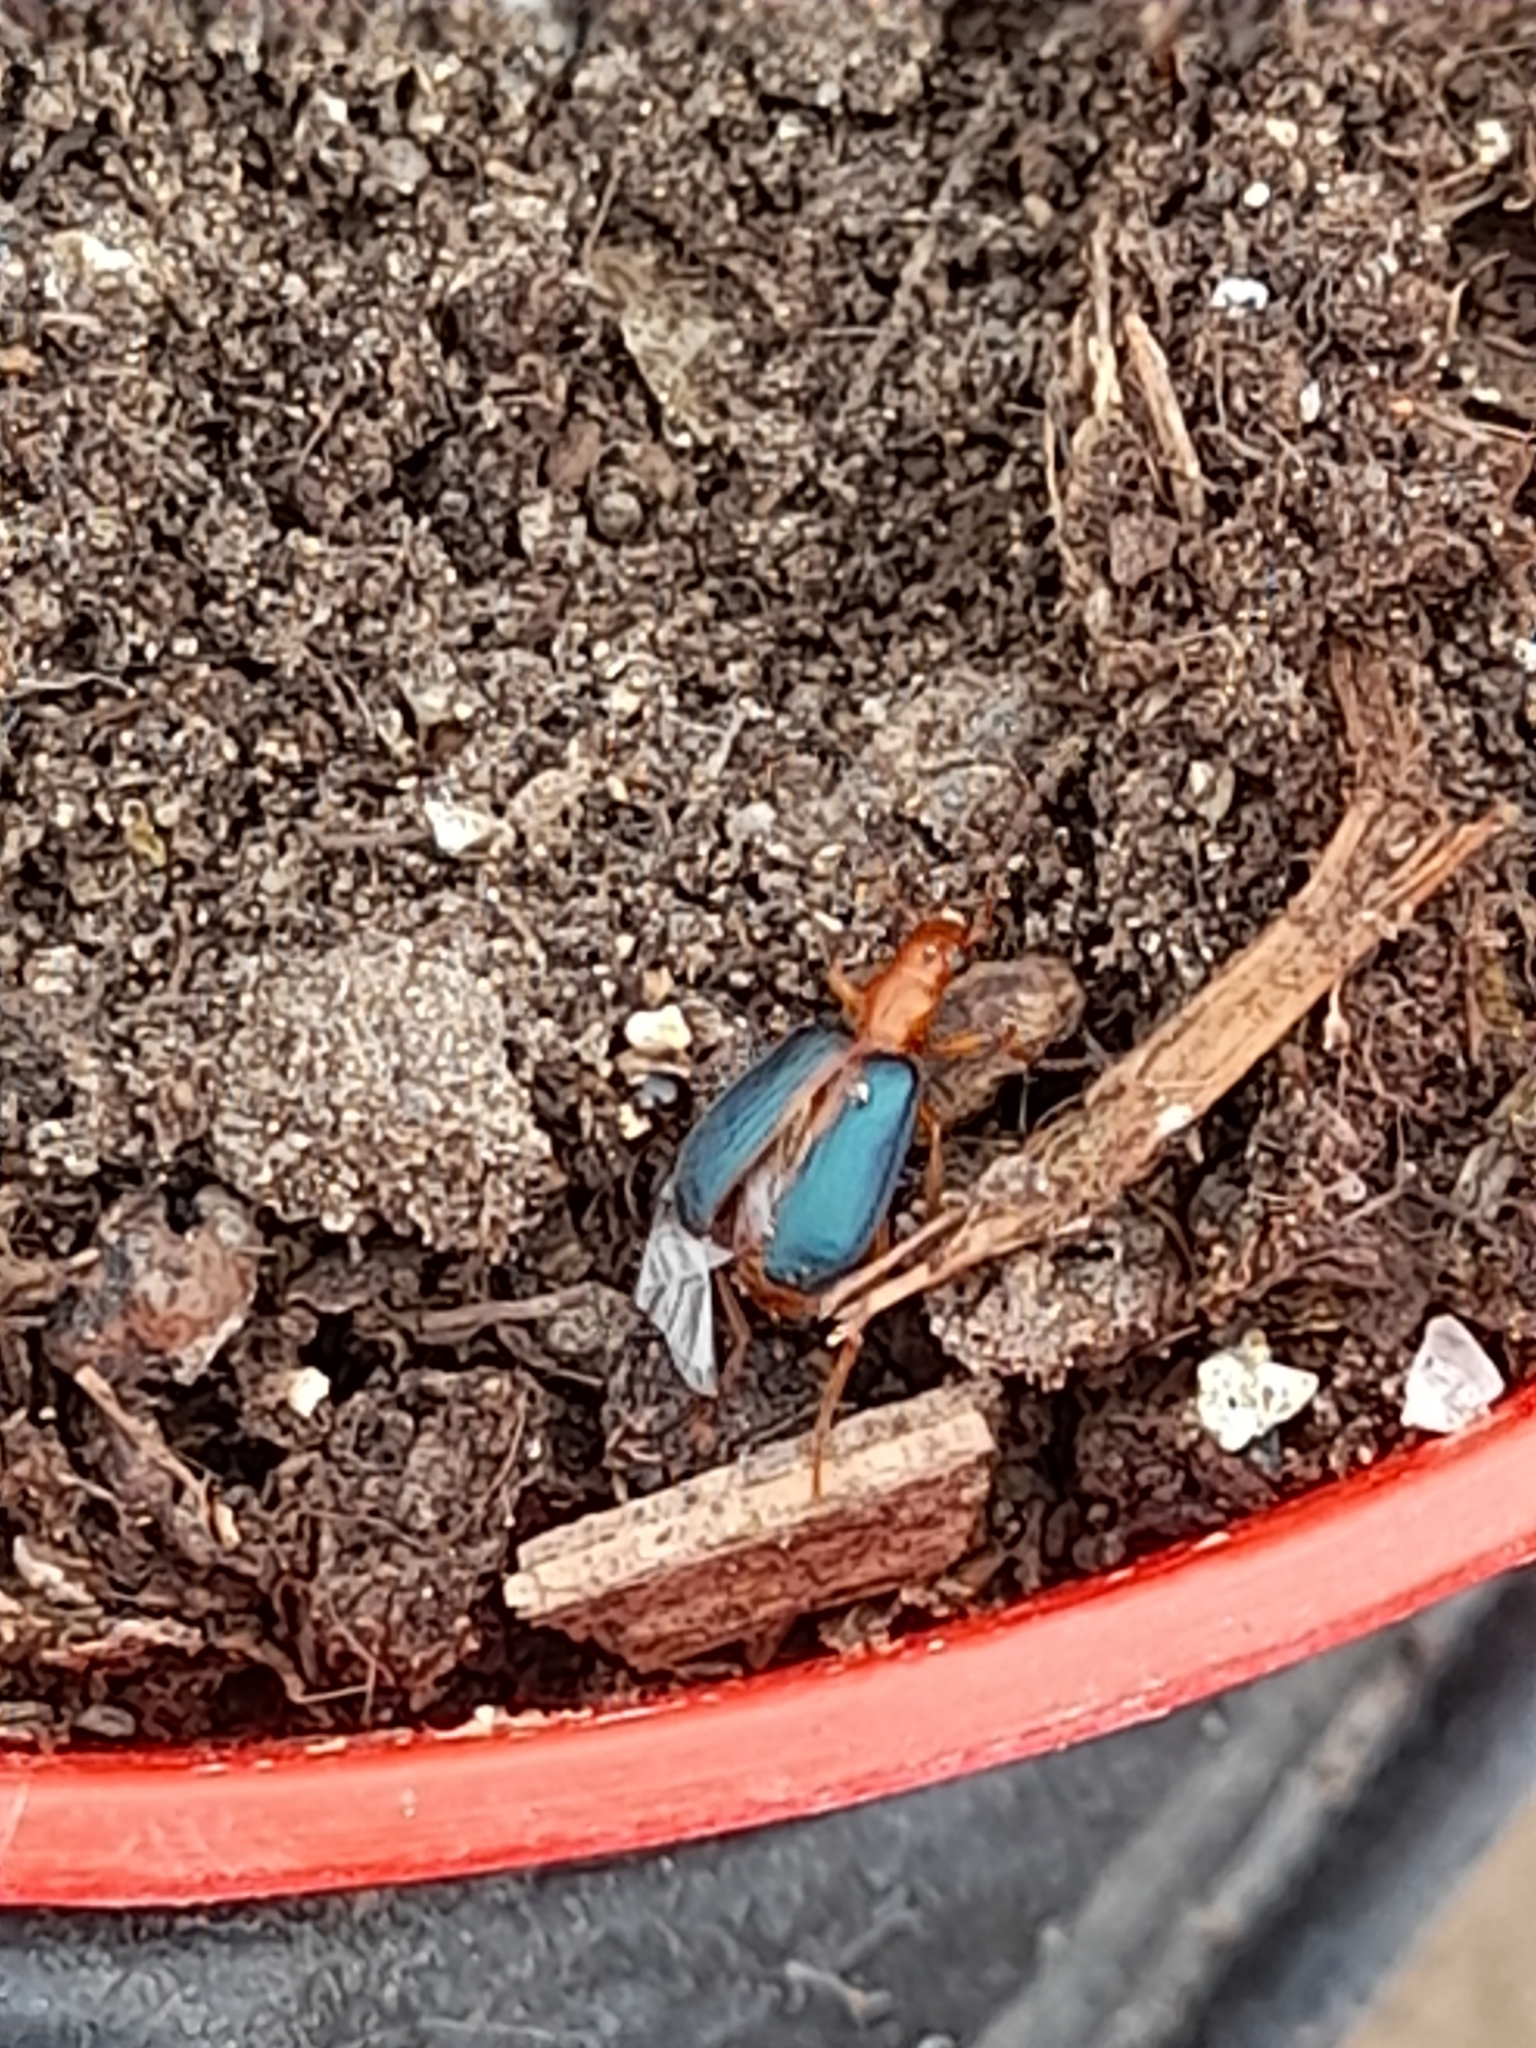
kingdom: Animalia
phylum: Arthropoda
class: Insecta
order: Coleoptera
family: Carabidae
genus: Brachinus
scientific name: Brachinus sclopeta
